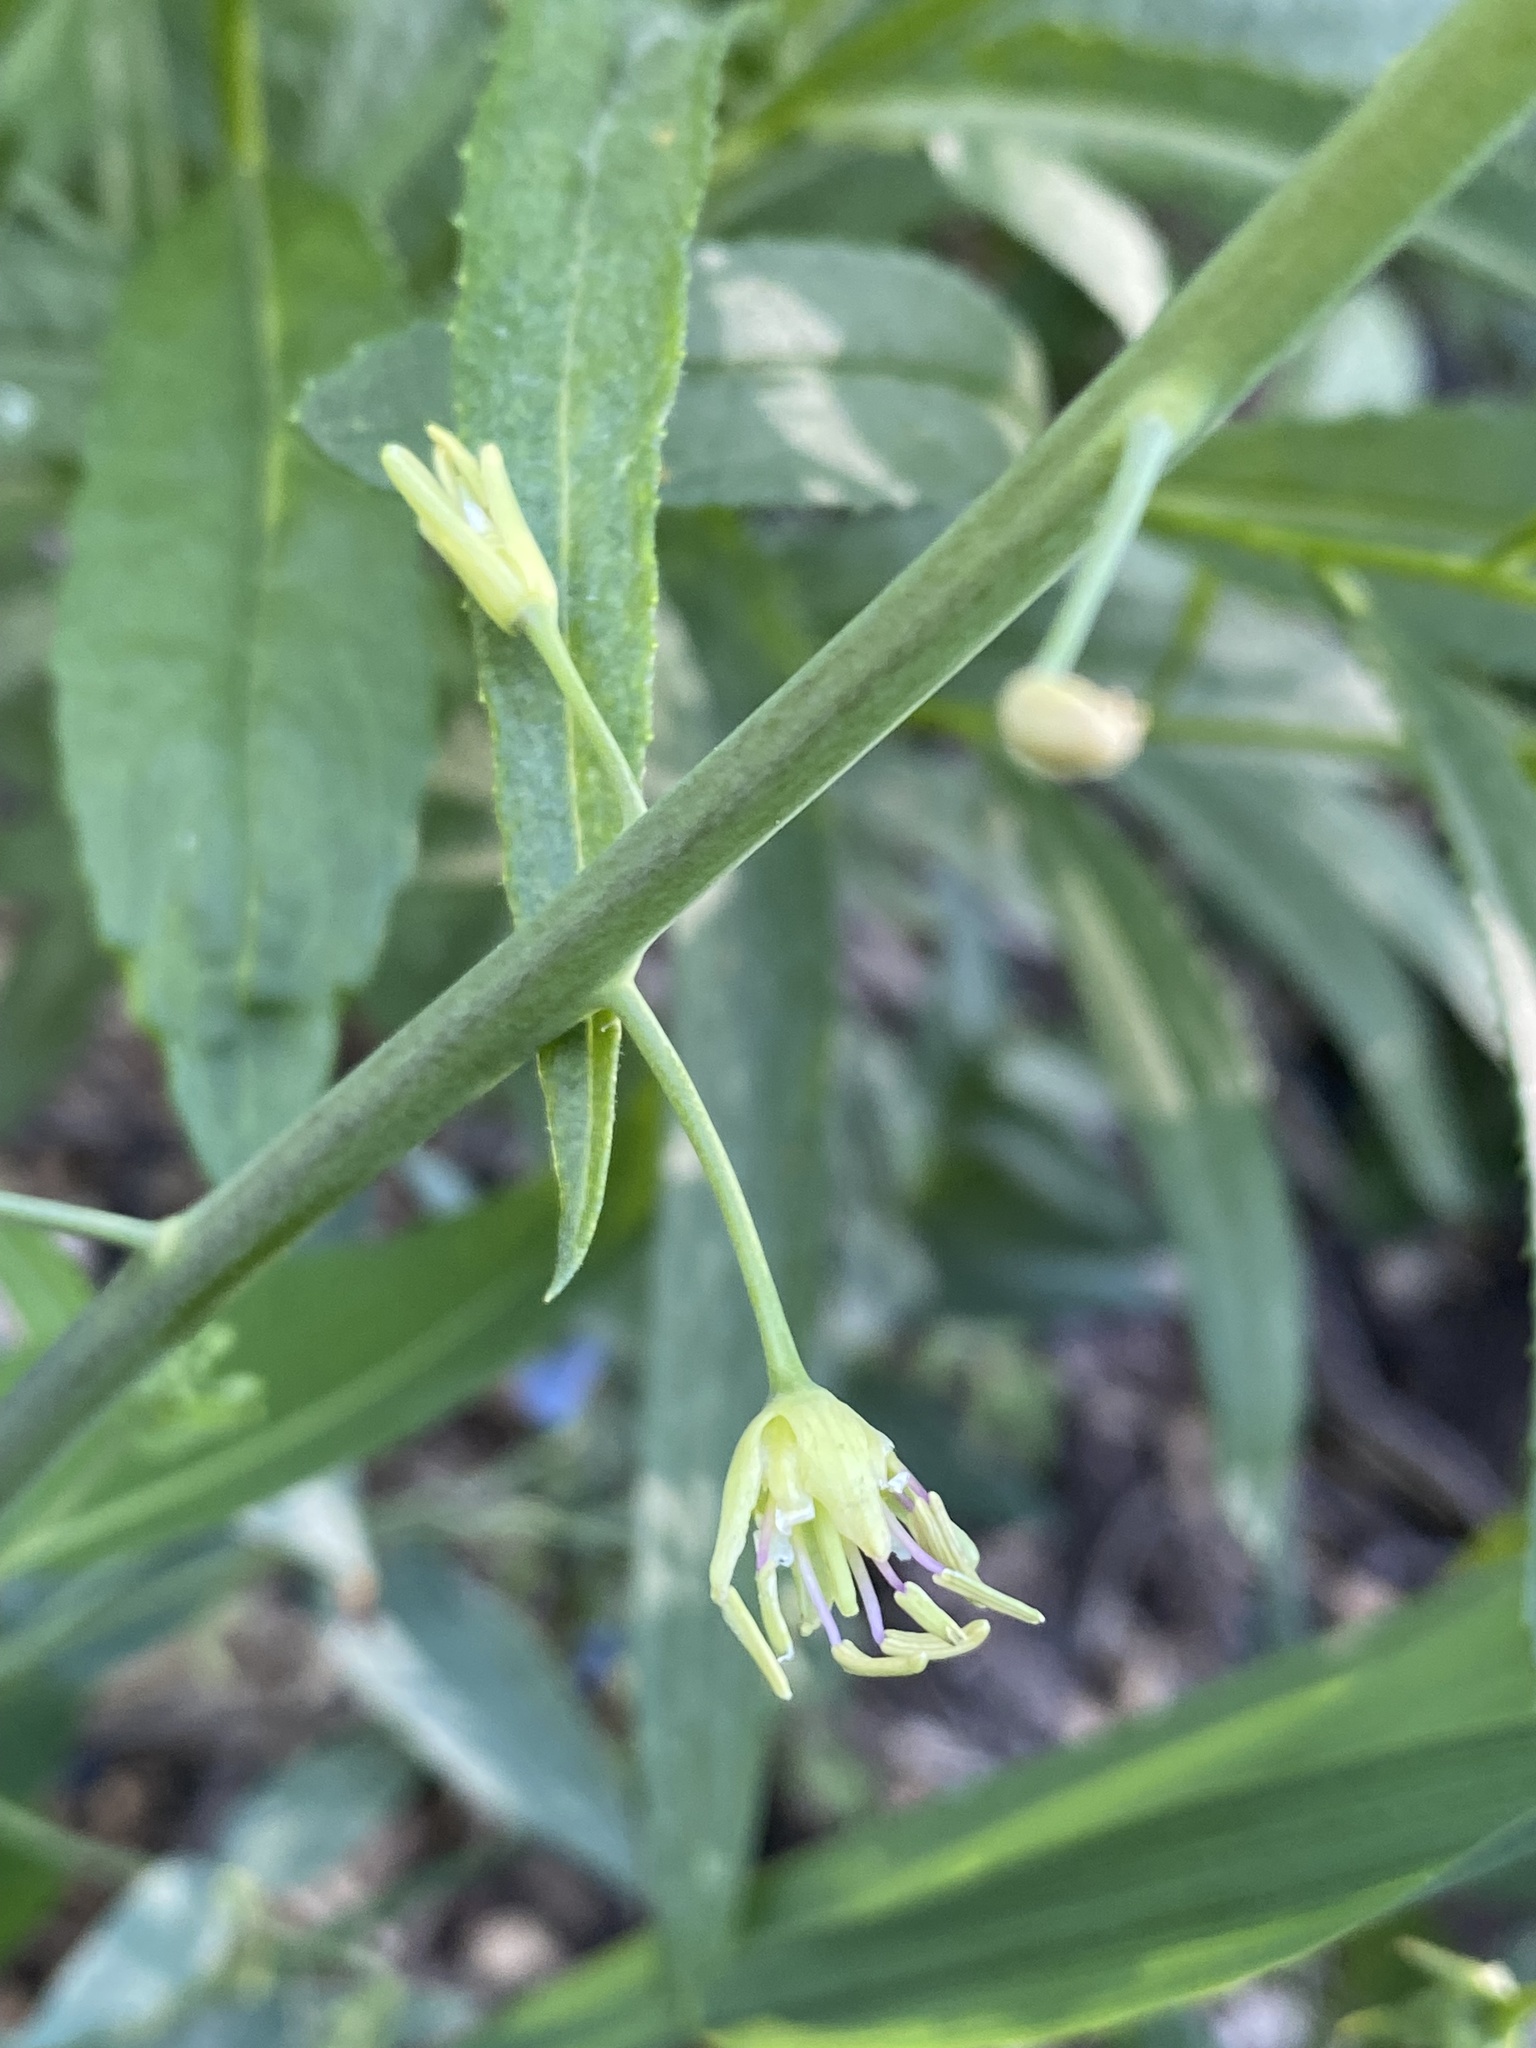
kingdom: Plantae
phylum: Tracheophyta
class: Magnoliopsida
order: Brassicales
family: Brassicaceae
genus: Chlorocrambe
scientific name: Chlorocrambe hastata
